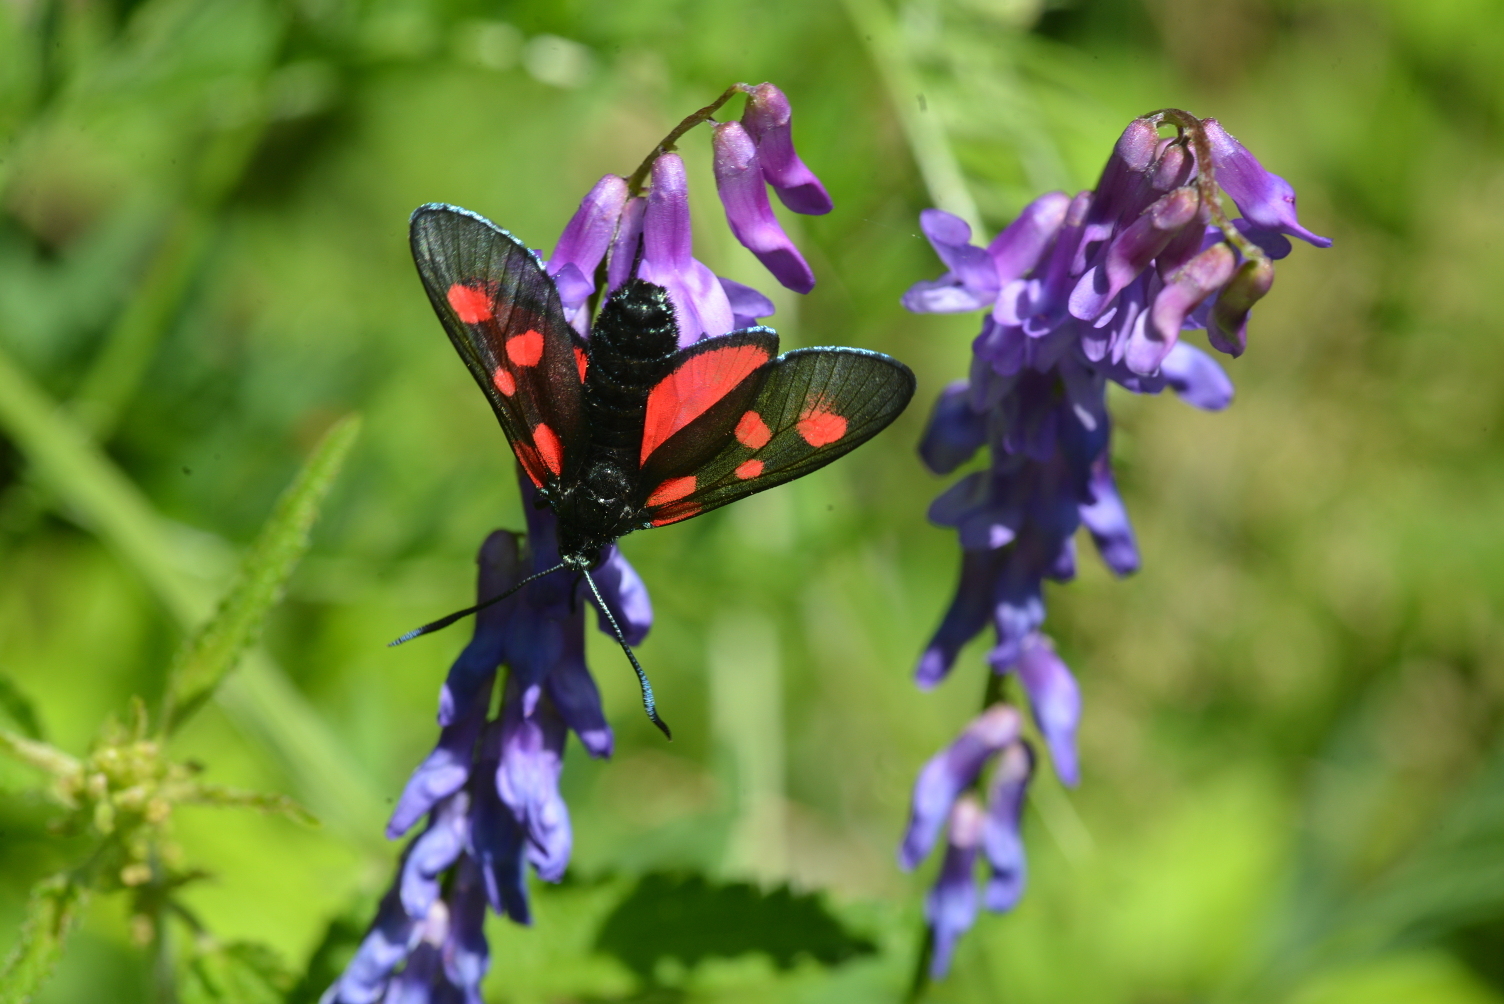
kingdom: Animalia
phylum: Arthropoda
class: Insecta
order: Lepidoptera
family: Zygaenidae
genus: Zygaena
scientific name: Zygaena lonicerae
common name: Narrow-bordered five-spot burnet
